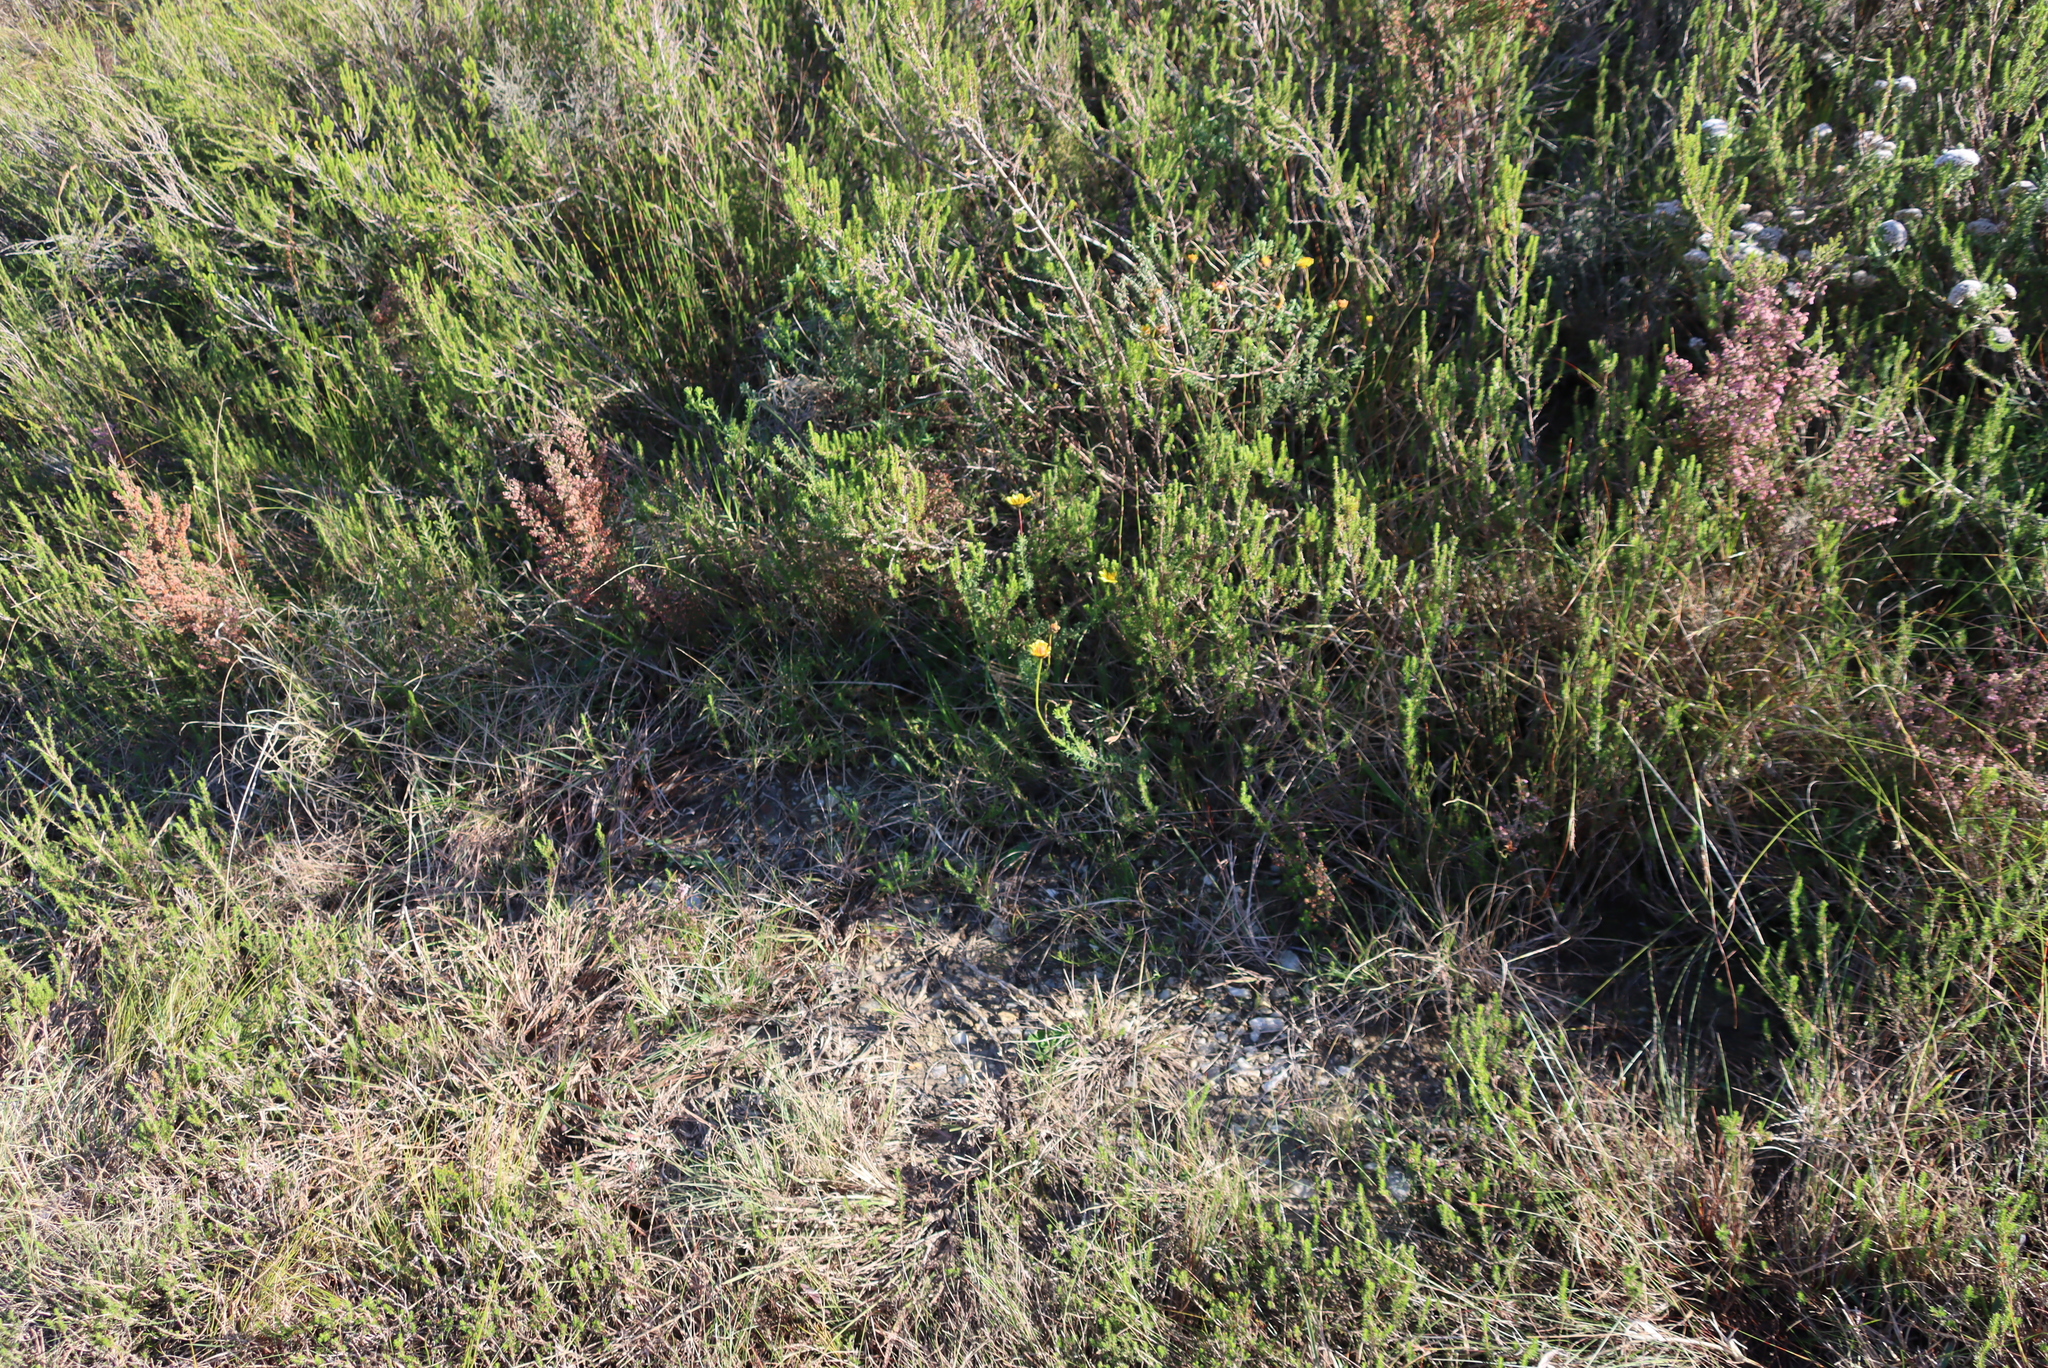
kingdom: Plantae
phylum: Tracheophyta
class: Magnoliopsida
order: Asterales
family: Asteraceae
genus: Ursinia
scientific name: Ursinia trifida
